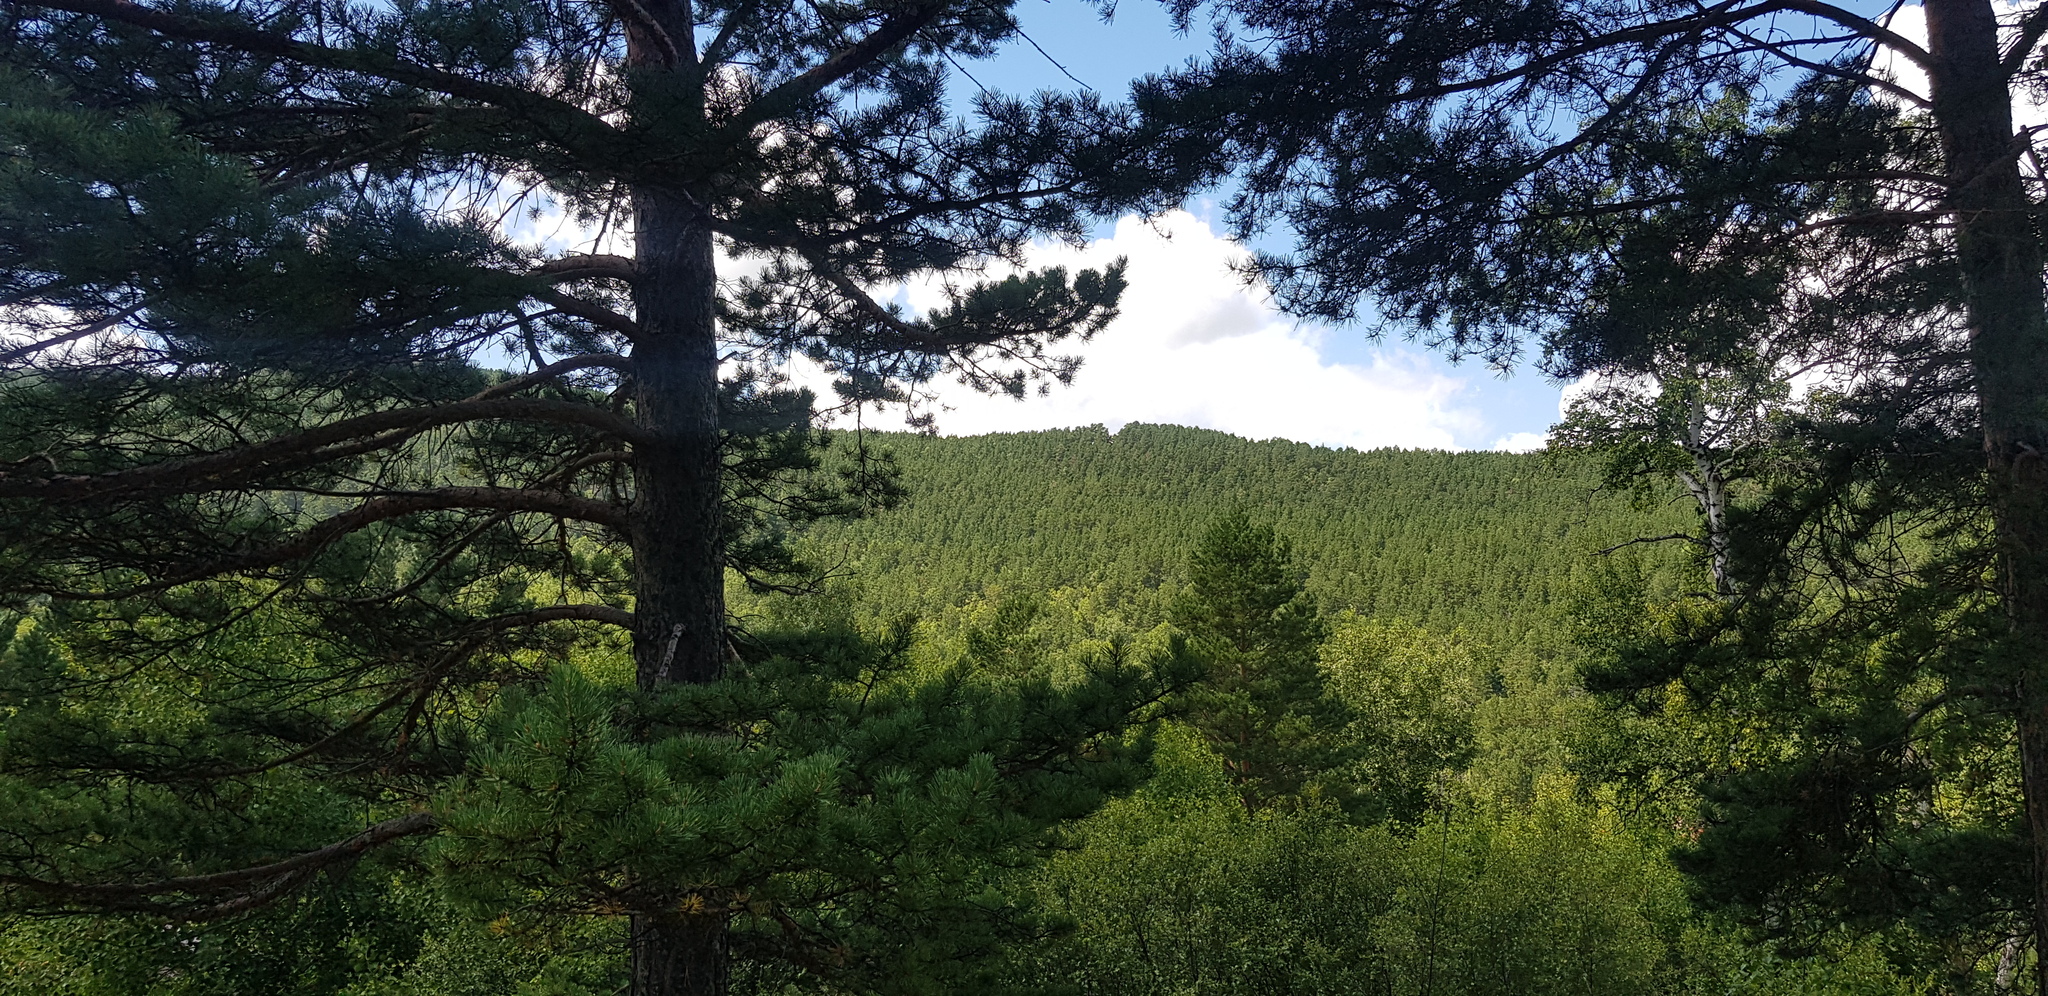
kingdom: Plantae
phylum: Tracheophyta
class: Pinopsida
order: Pinales
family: Pinaceae
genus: Pinus
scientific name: Pinus sylvestris
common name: Scots pine
